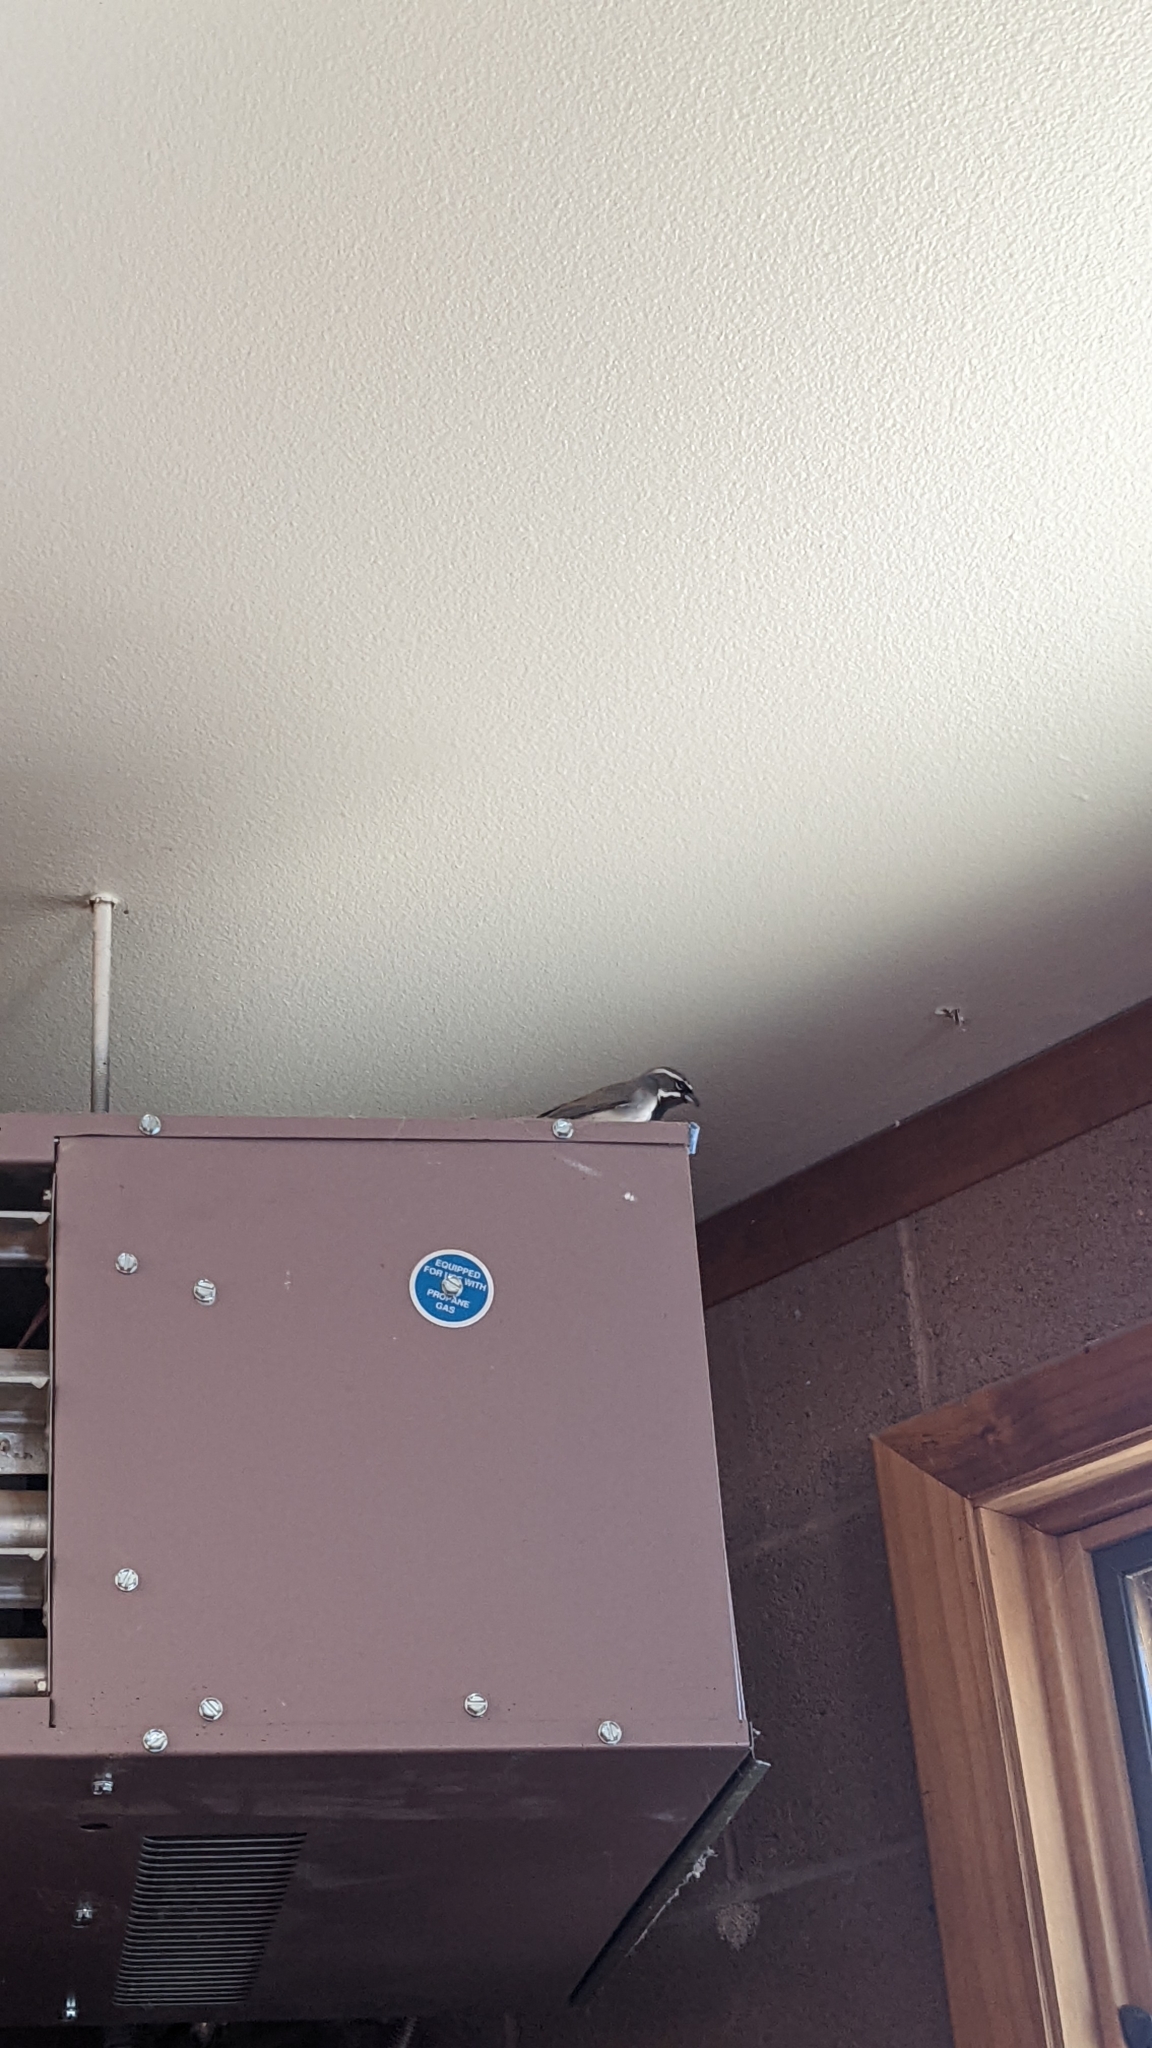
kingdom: Animalia
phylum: Chordata
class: Aves
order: Passeriformes
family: Passerellidae
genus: Amphispiza
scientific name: Amphispiza bilineata
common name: Black-throated sparrow
